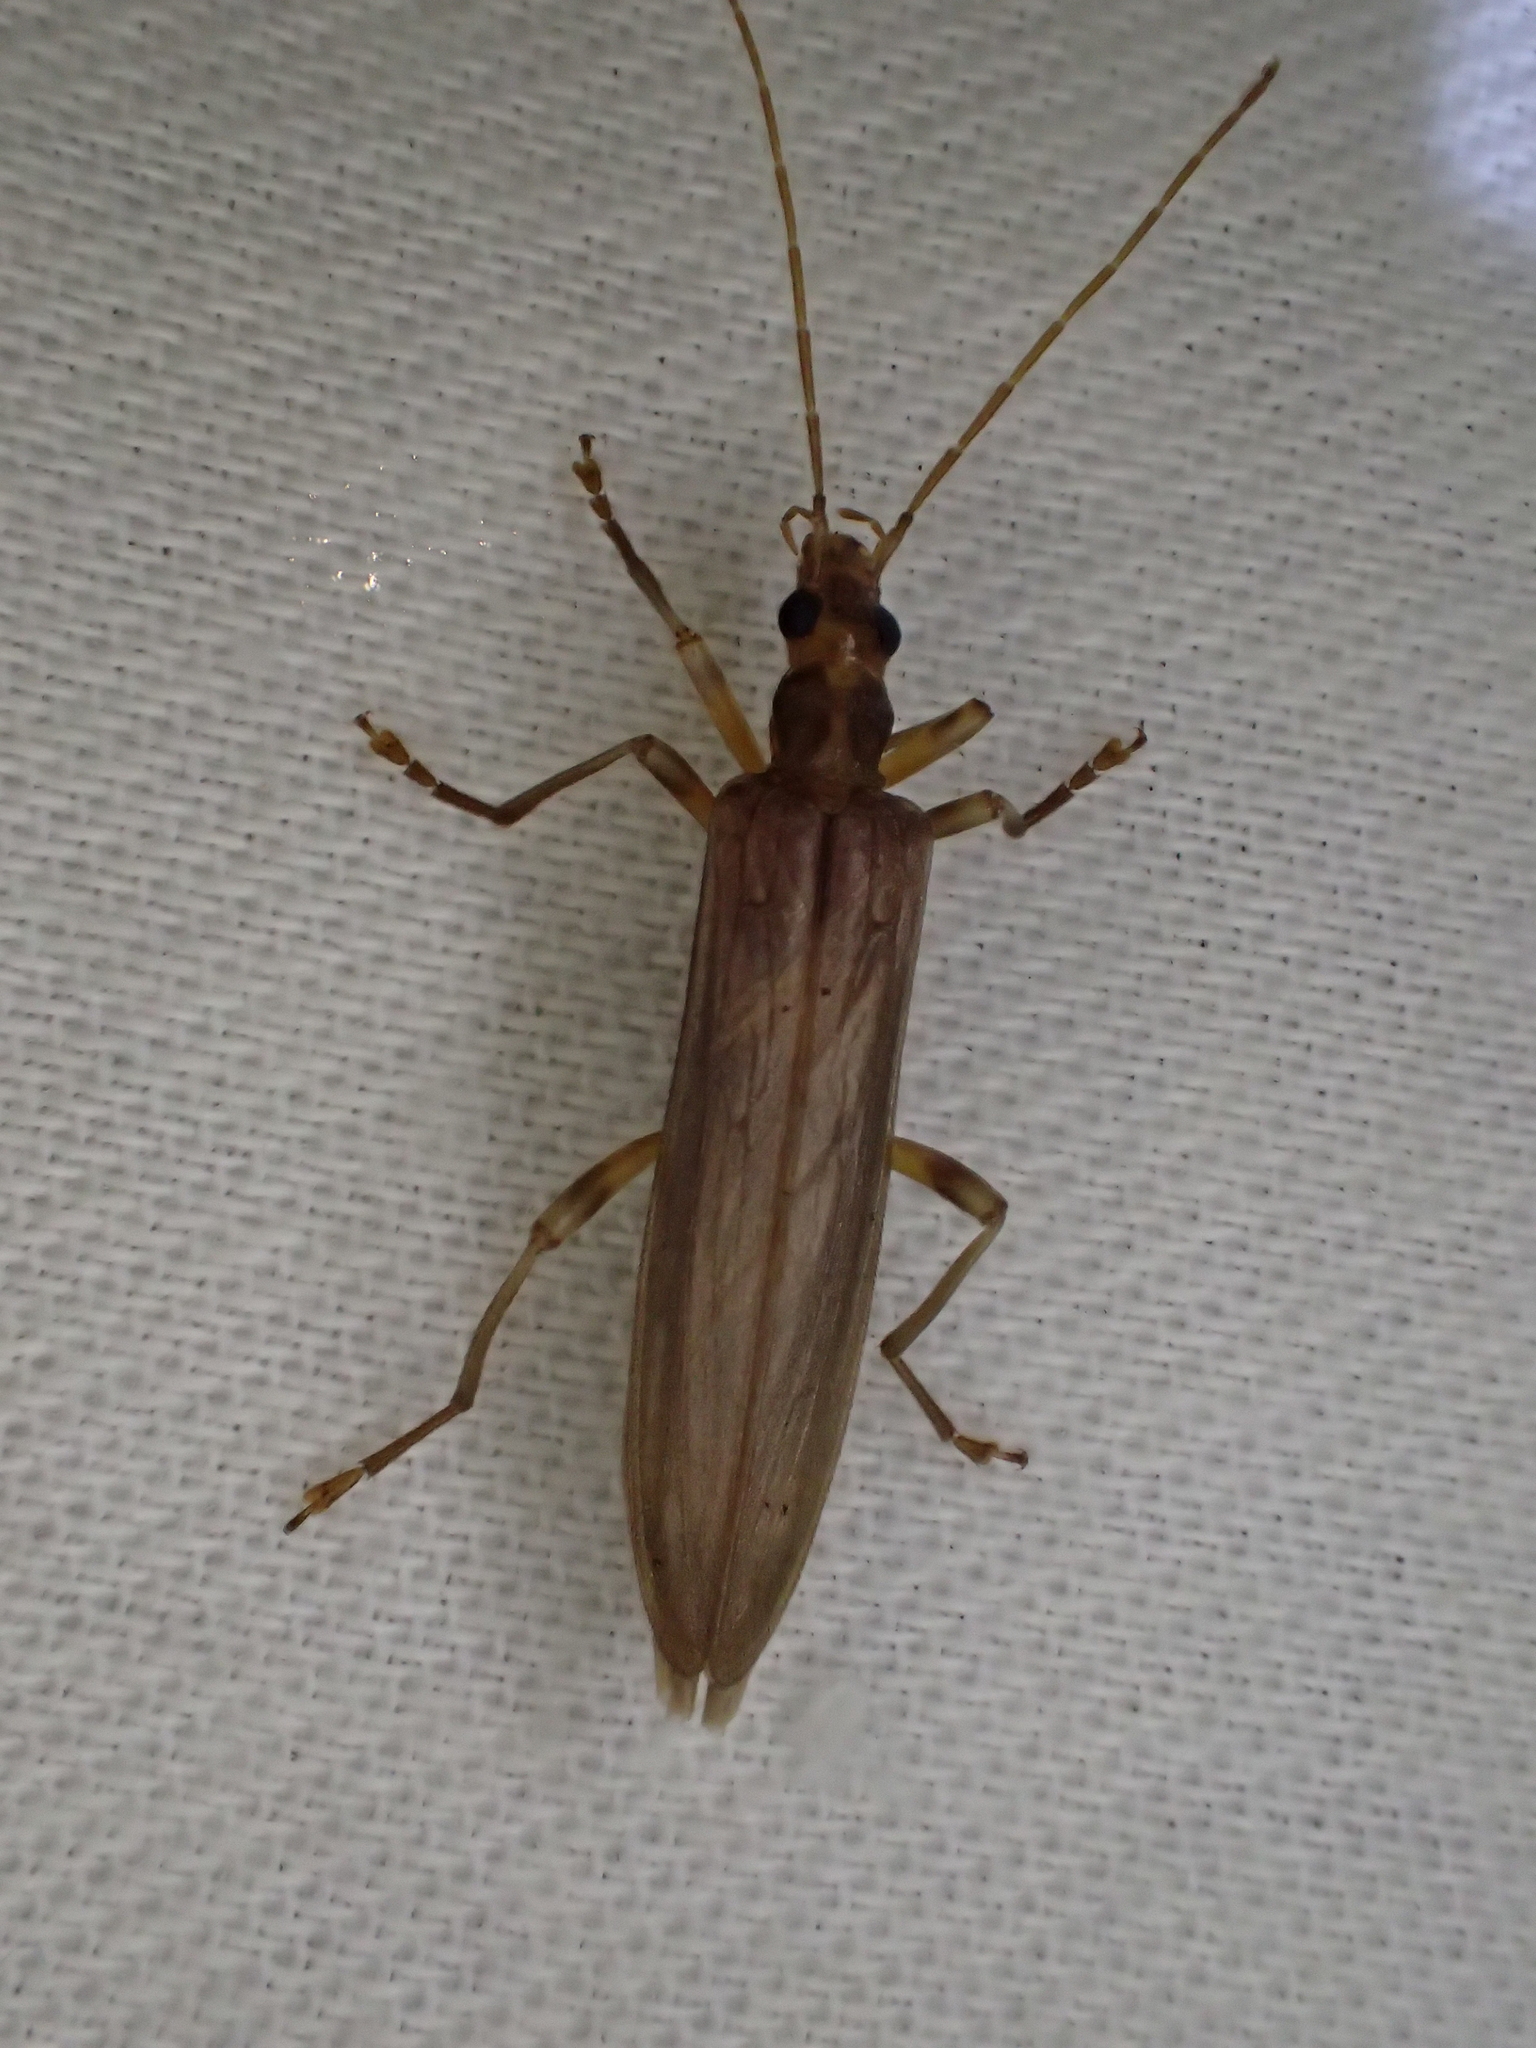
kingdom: Animalia
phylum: Arthropoda
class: Insecta
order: Coleoptera
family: Oedemeridae
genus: Oedemera
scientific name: Oedemera femoralis
